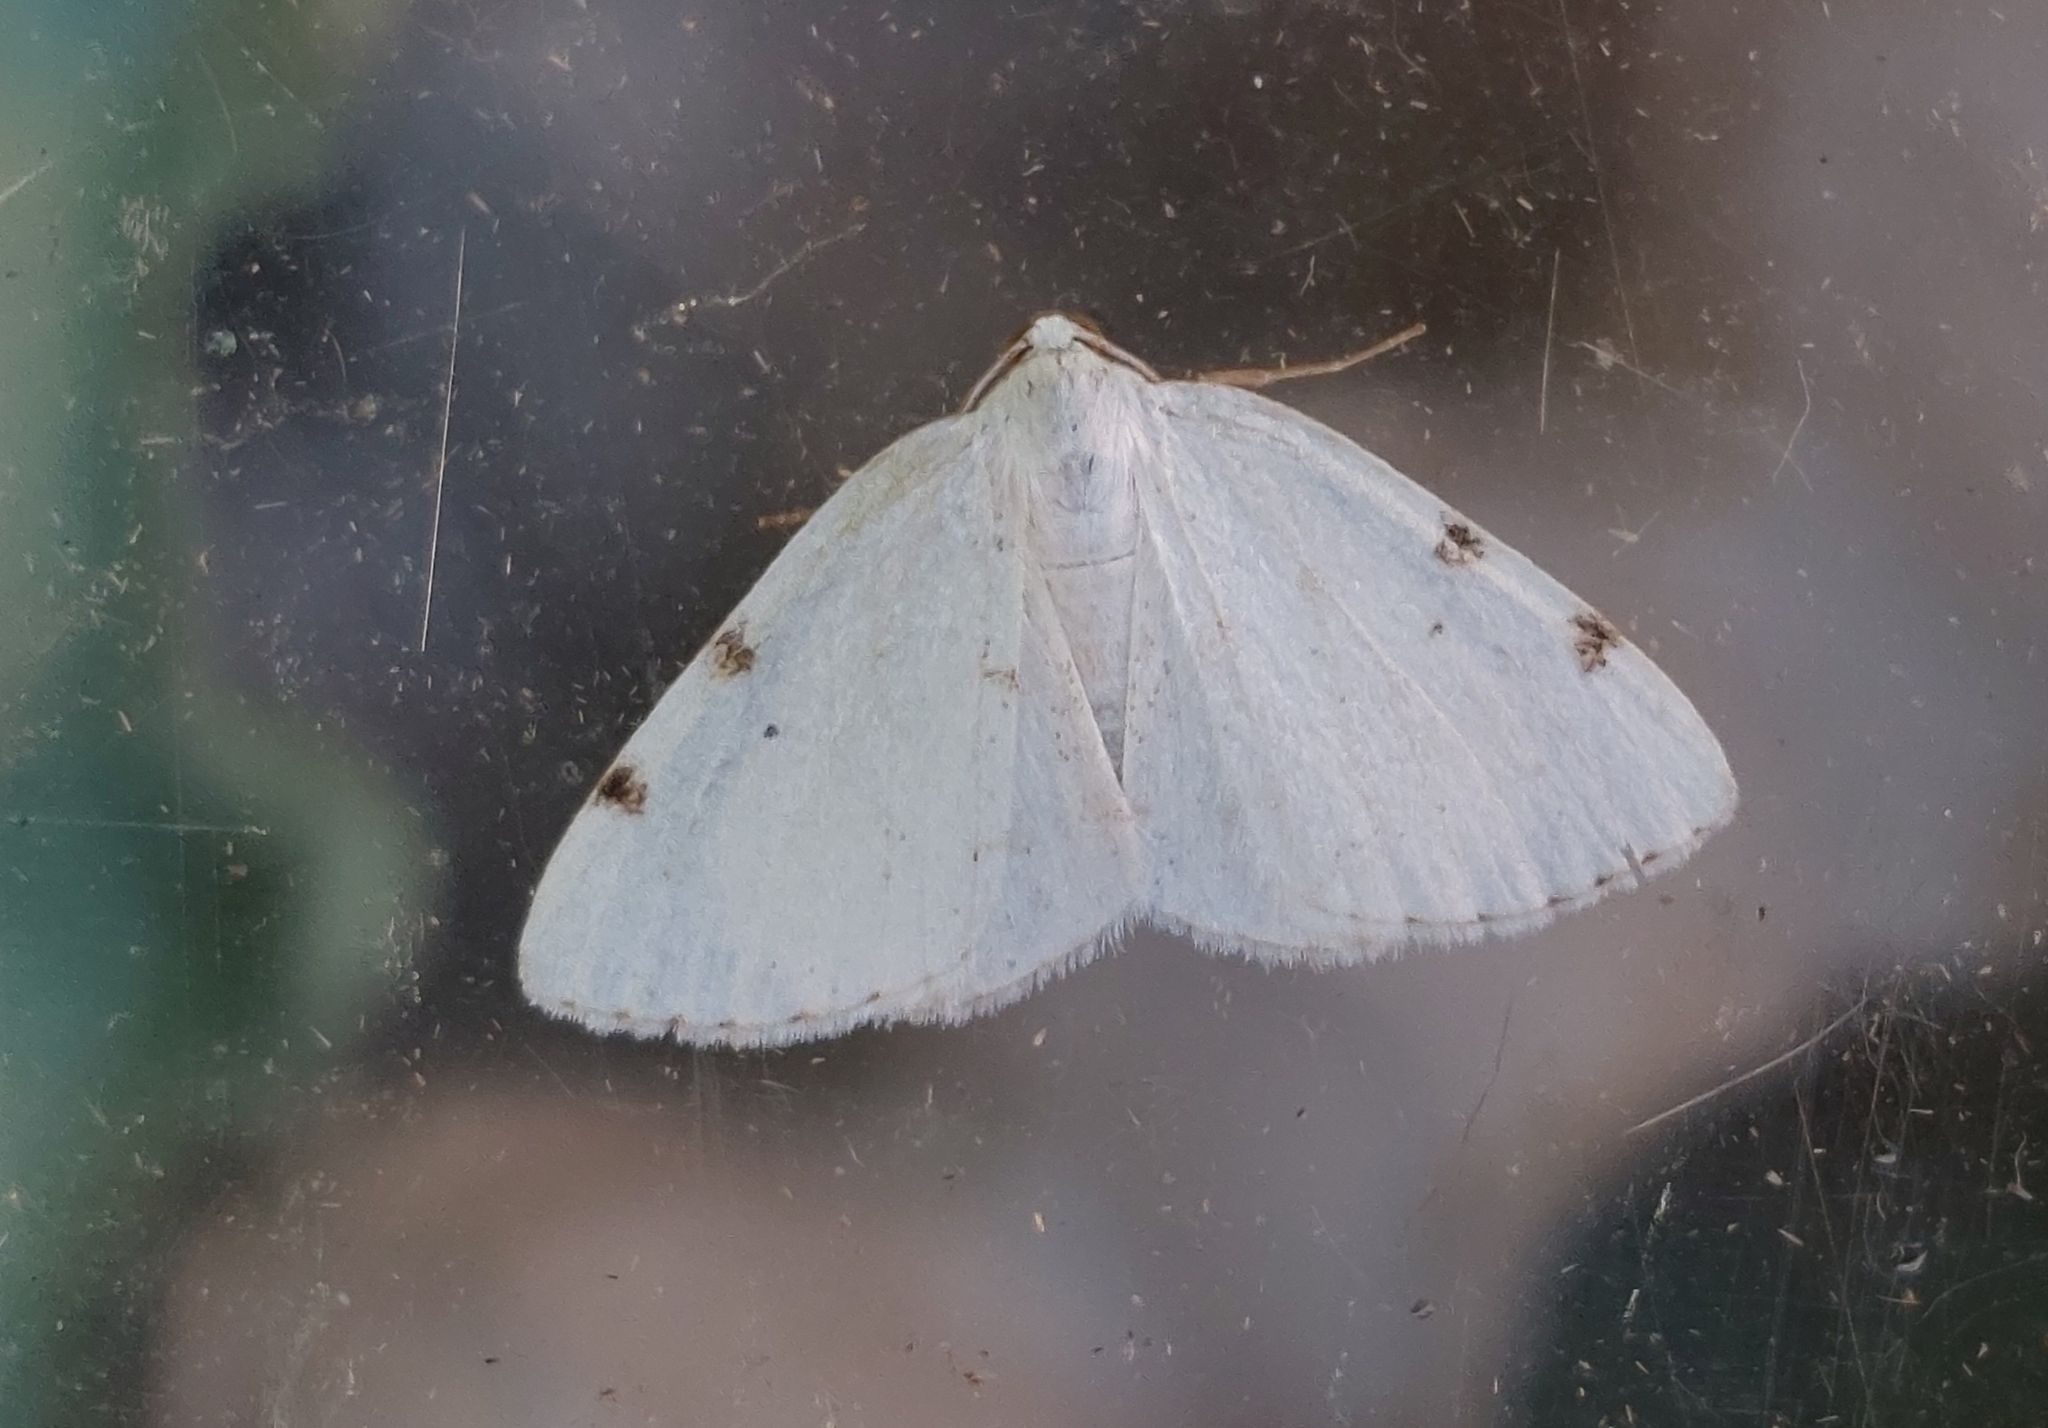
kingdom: Animalia
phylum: Arthropoda
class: Insecta
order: Lepidoptera
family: Geometridae
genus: Lomographa
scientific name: Lomographa bimaculata
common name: White-pinion spotted
